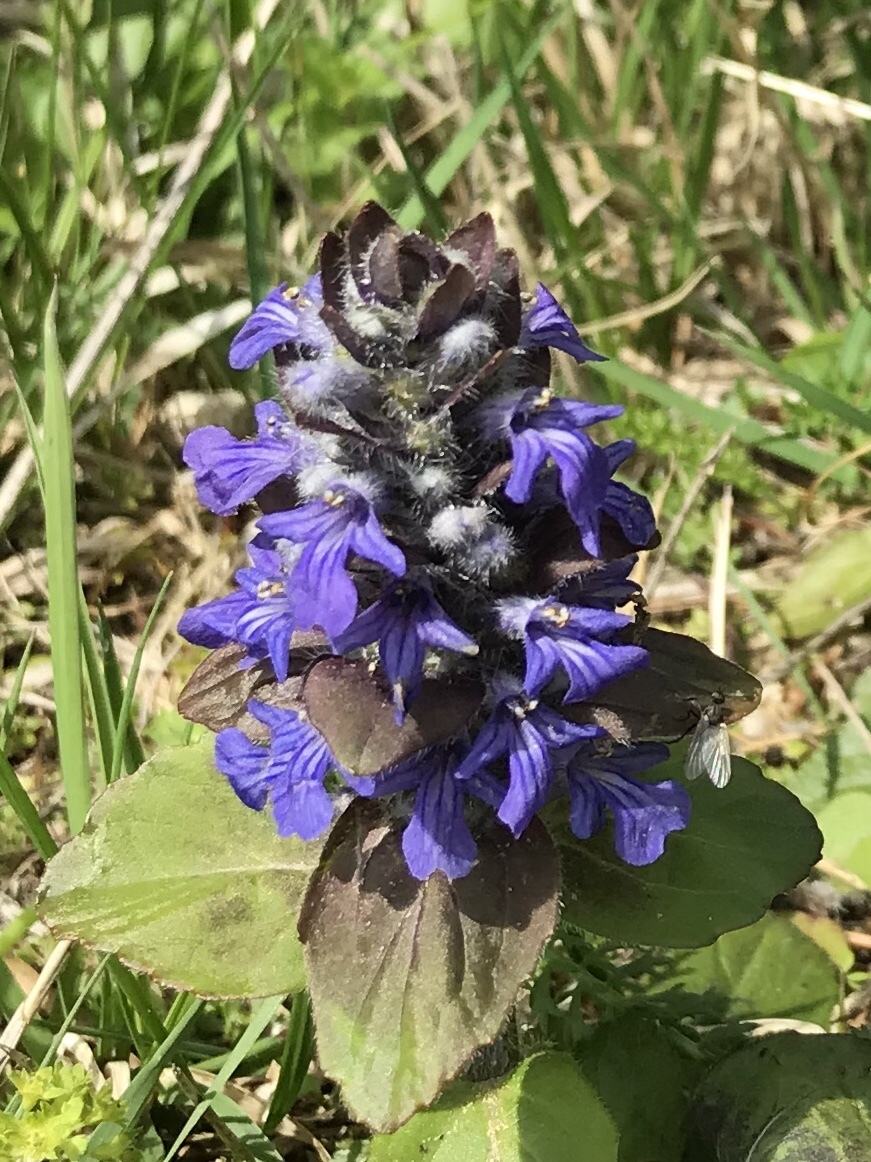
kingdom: Plantae
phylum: Tracheophyta
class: Magnoliopsida
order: Lamiales
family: Lamiaceae
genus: Ajuga
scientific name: Ajuga reptans
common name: Bugle
